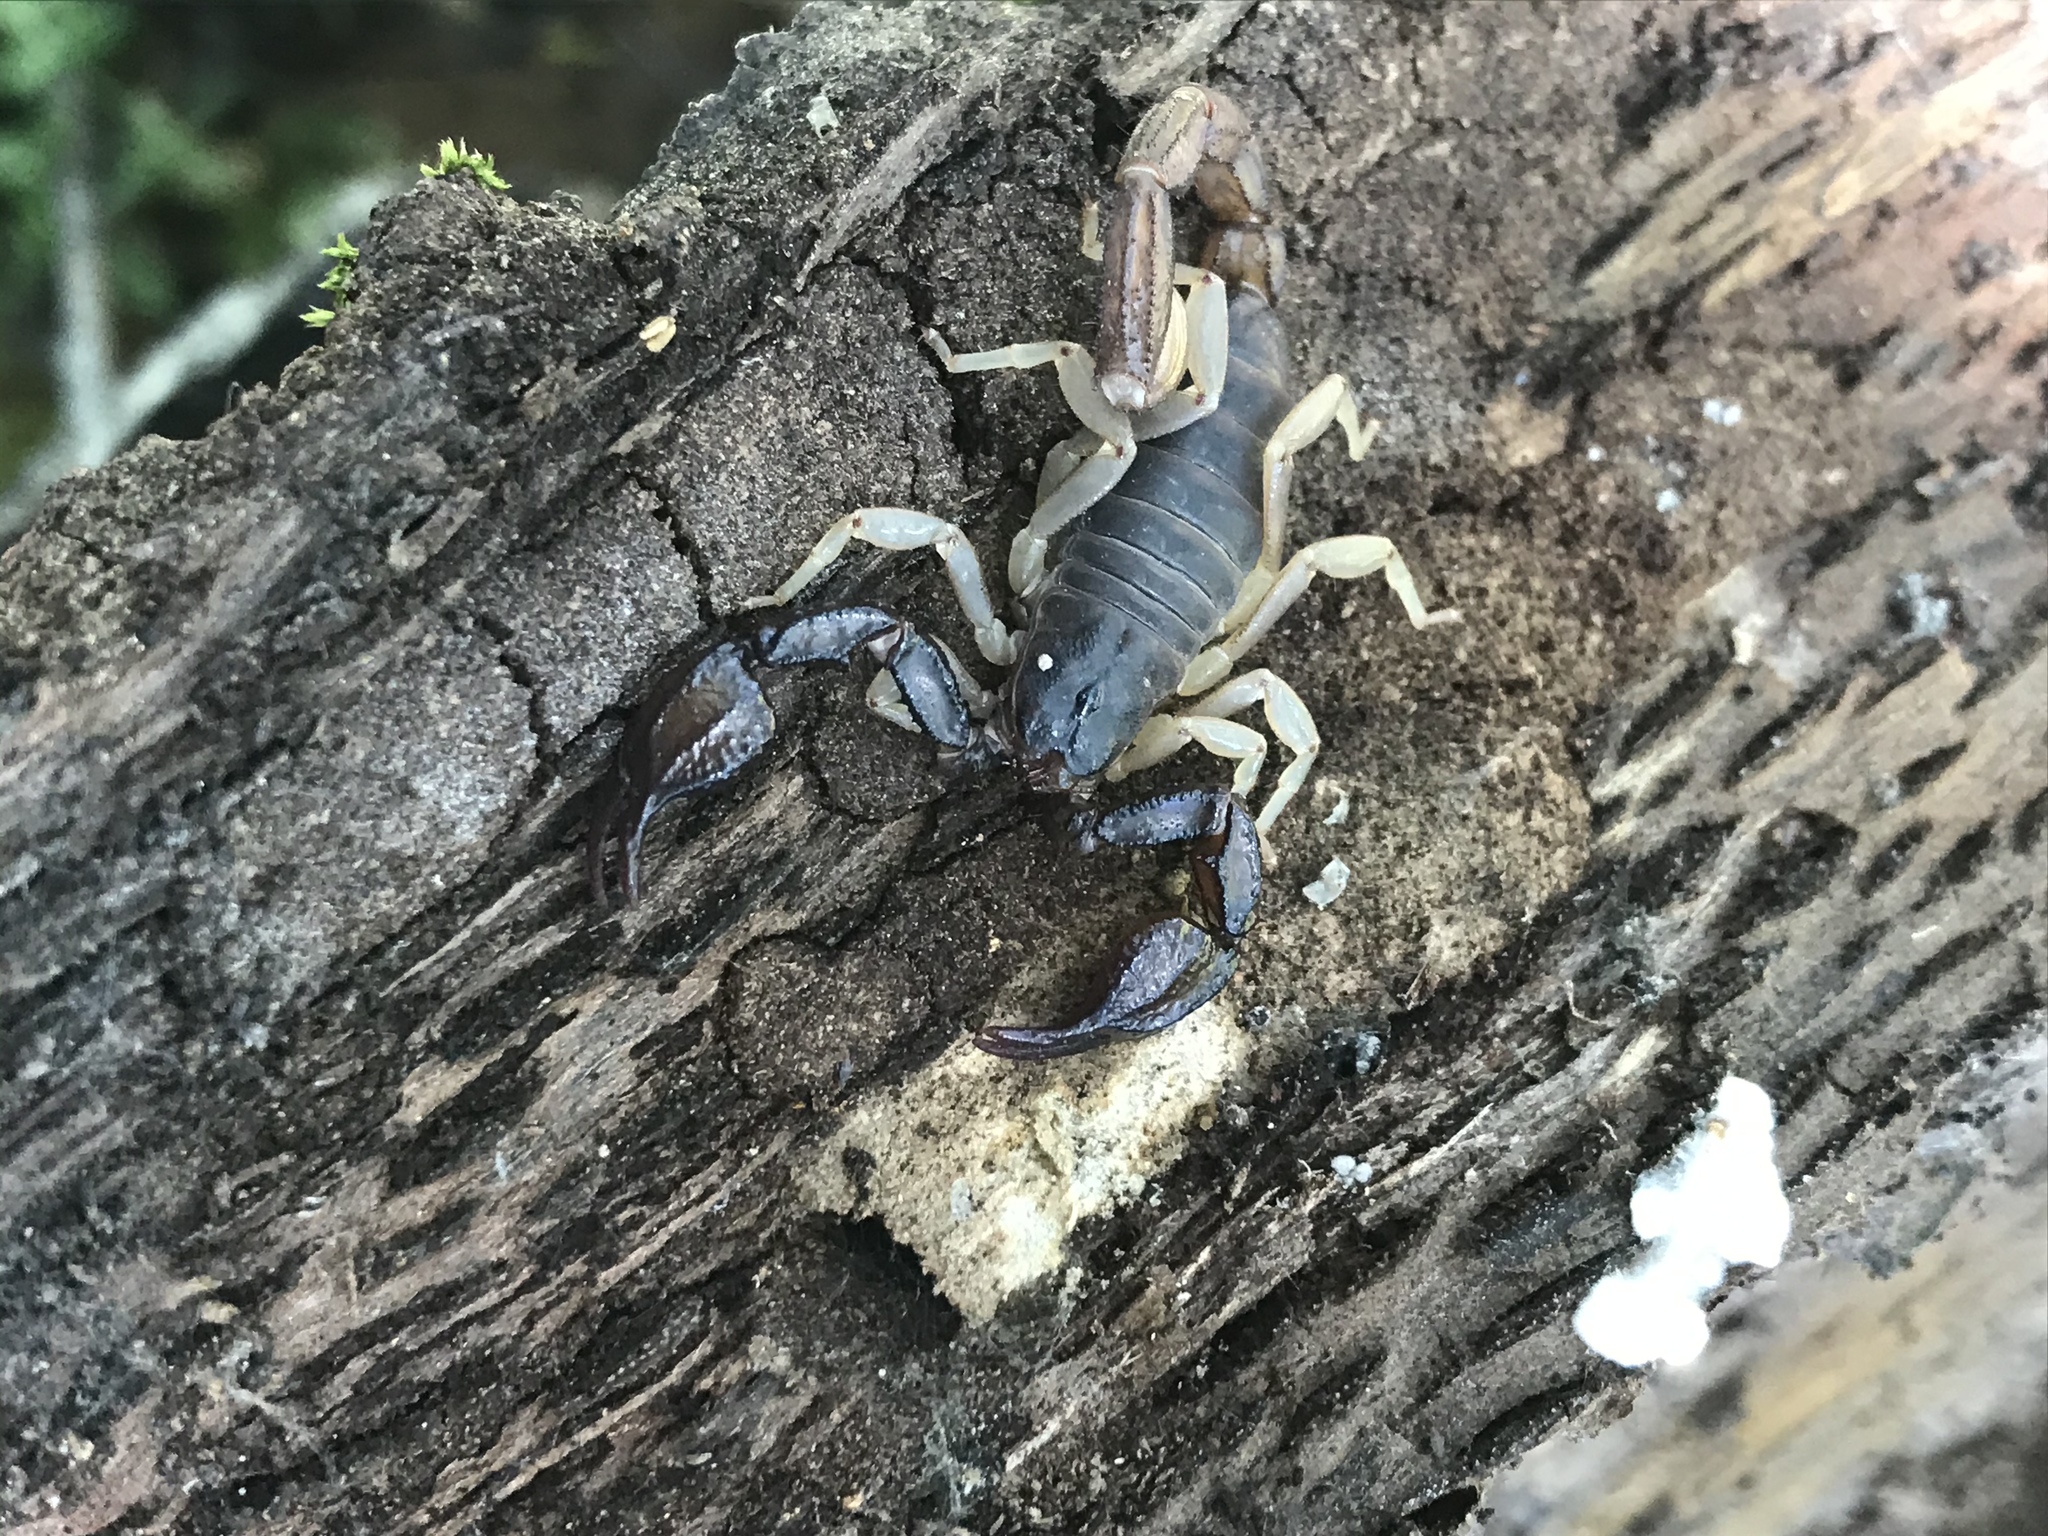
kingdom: Animalia
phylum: Arthropoda
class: Arachnida
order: Scorpiones
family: Chactidae
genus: Uroctonus
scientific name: Uroctonus mordax
